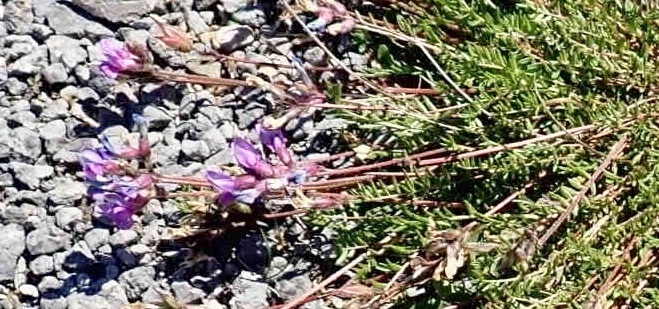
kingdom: Plantae
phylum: Tracheophyta
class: Magnoliopsida
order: Fabales
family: Fabaceae
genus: Oxytropis
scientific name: Oxytropis campestris
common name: Field locoweed
